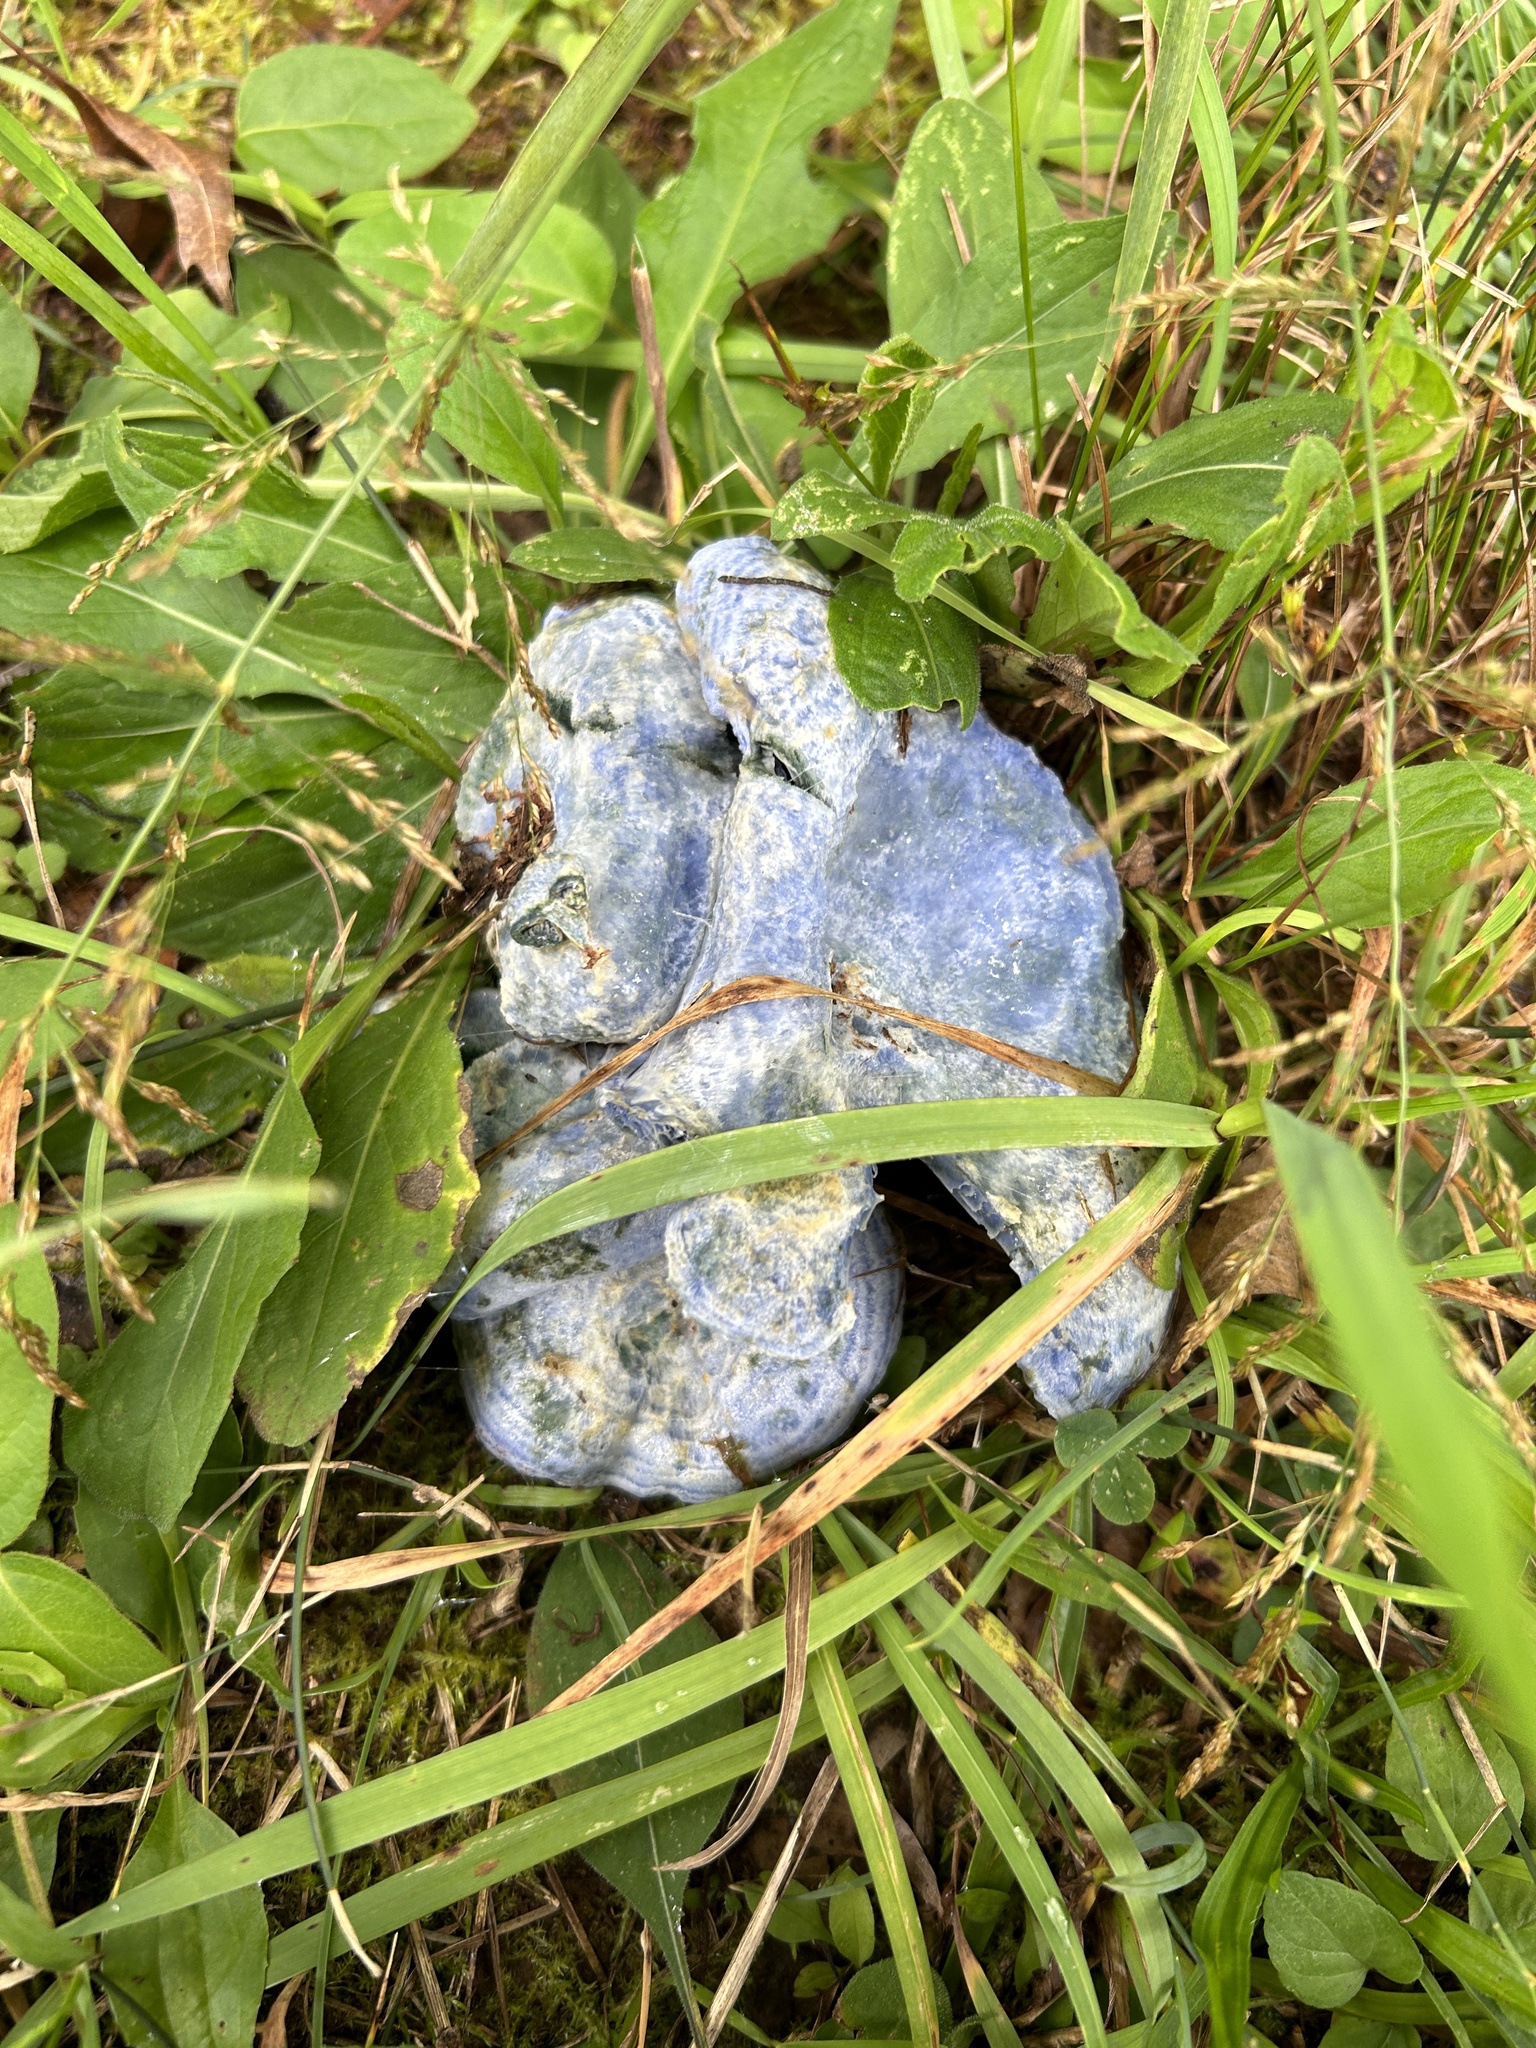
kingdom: Fungi
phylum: Basidiomycota
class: Agaricomycetes
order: Russulales
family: Russulaceae
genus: Lactarius
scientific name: Lactarius indigo
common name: Indigo milk cap
